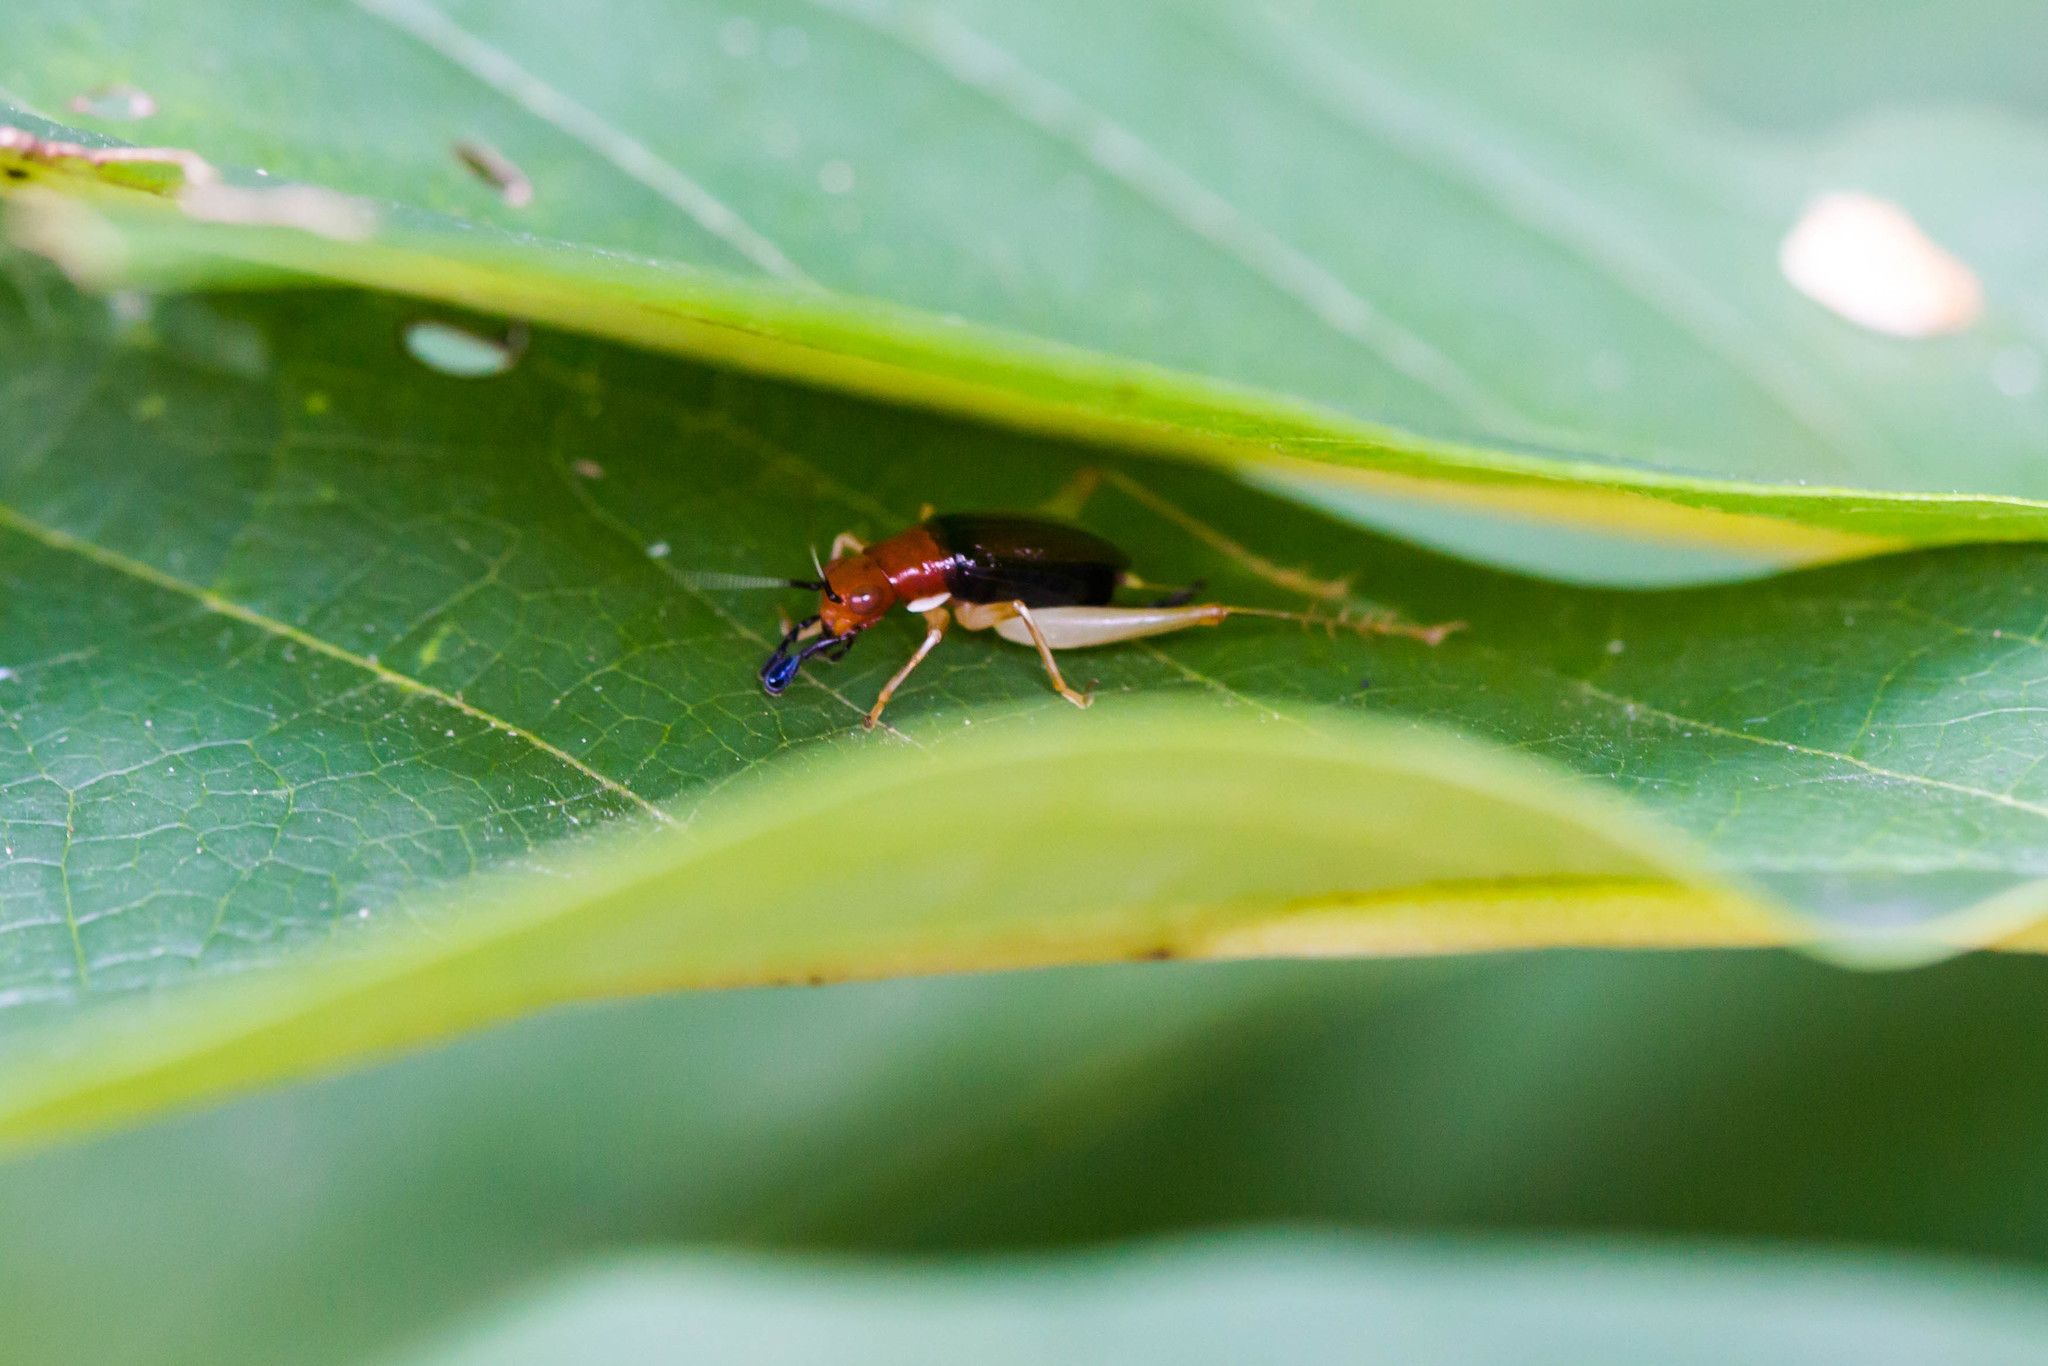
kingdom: Animalia
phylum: Arthropoda
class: Insecta
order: Orthoptera
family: Trigonidiidae
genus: Phyllopalpus
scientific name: Phyllopalpus pulchellus
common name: Handsome trig
